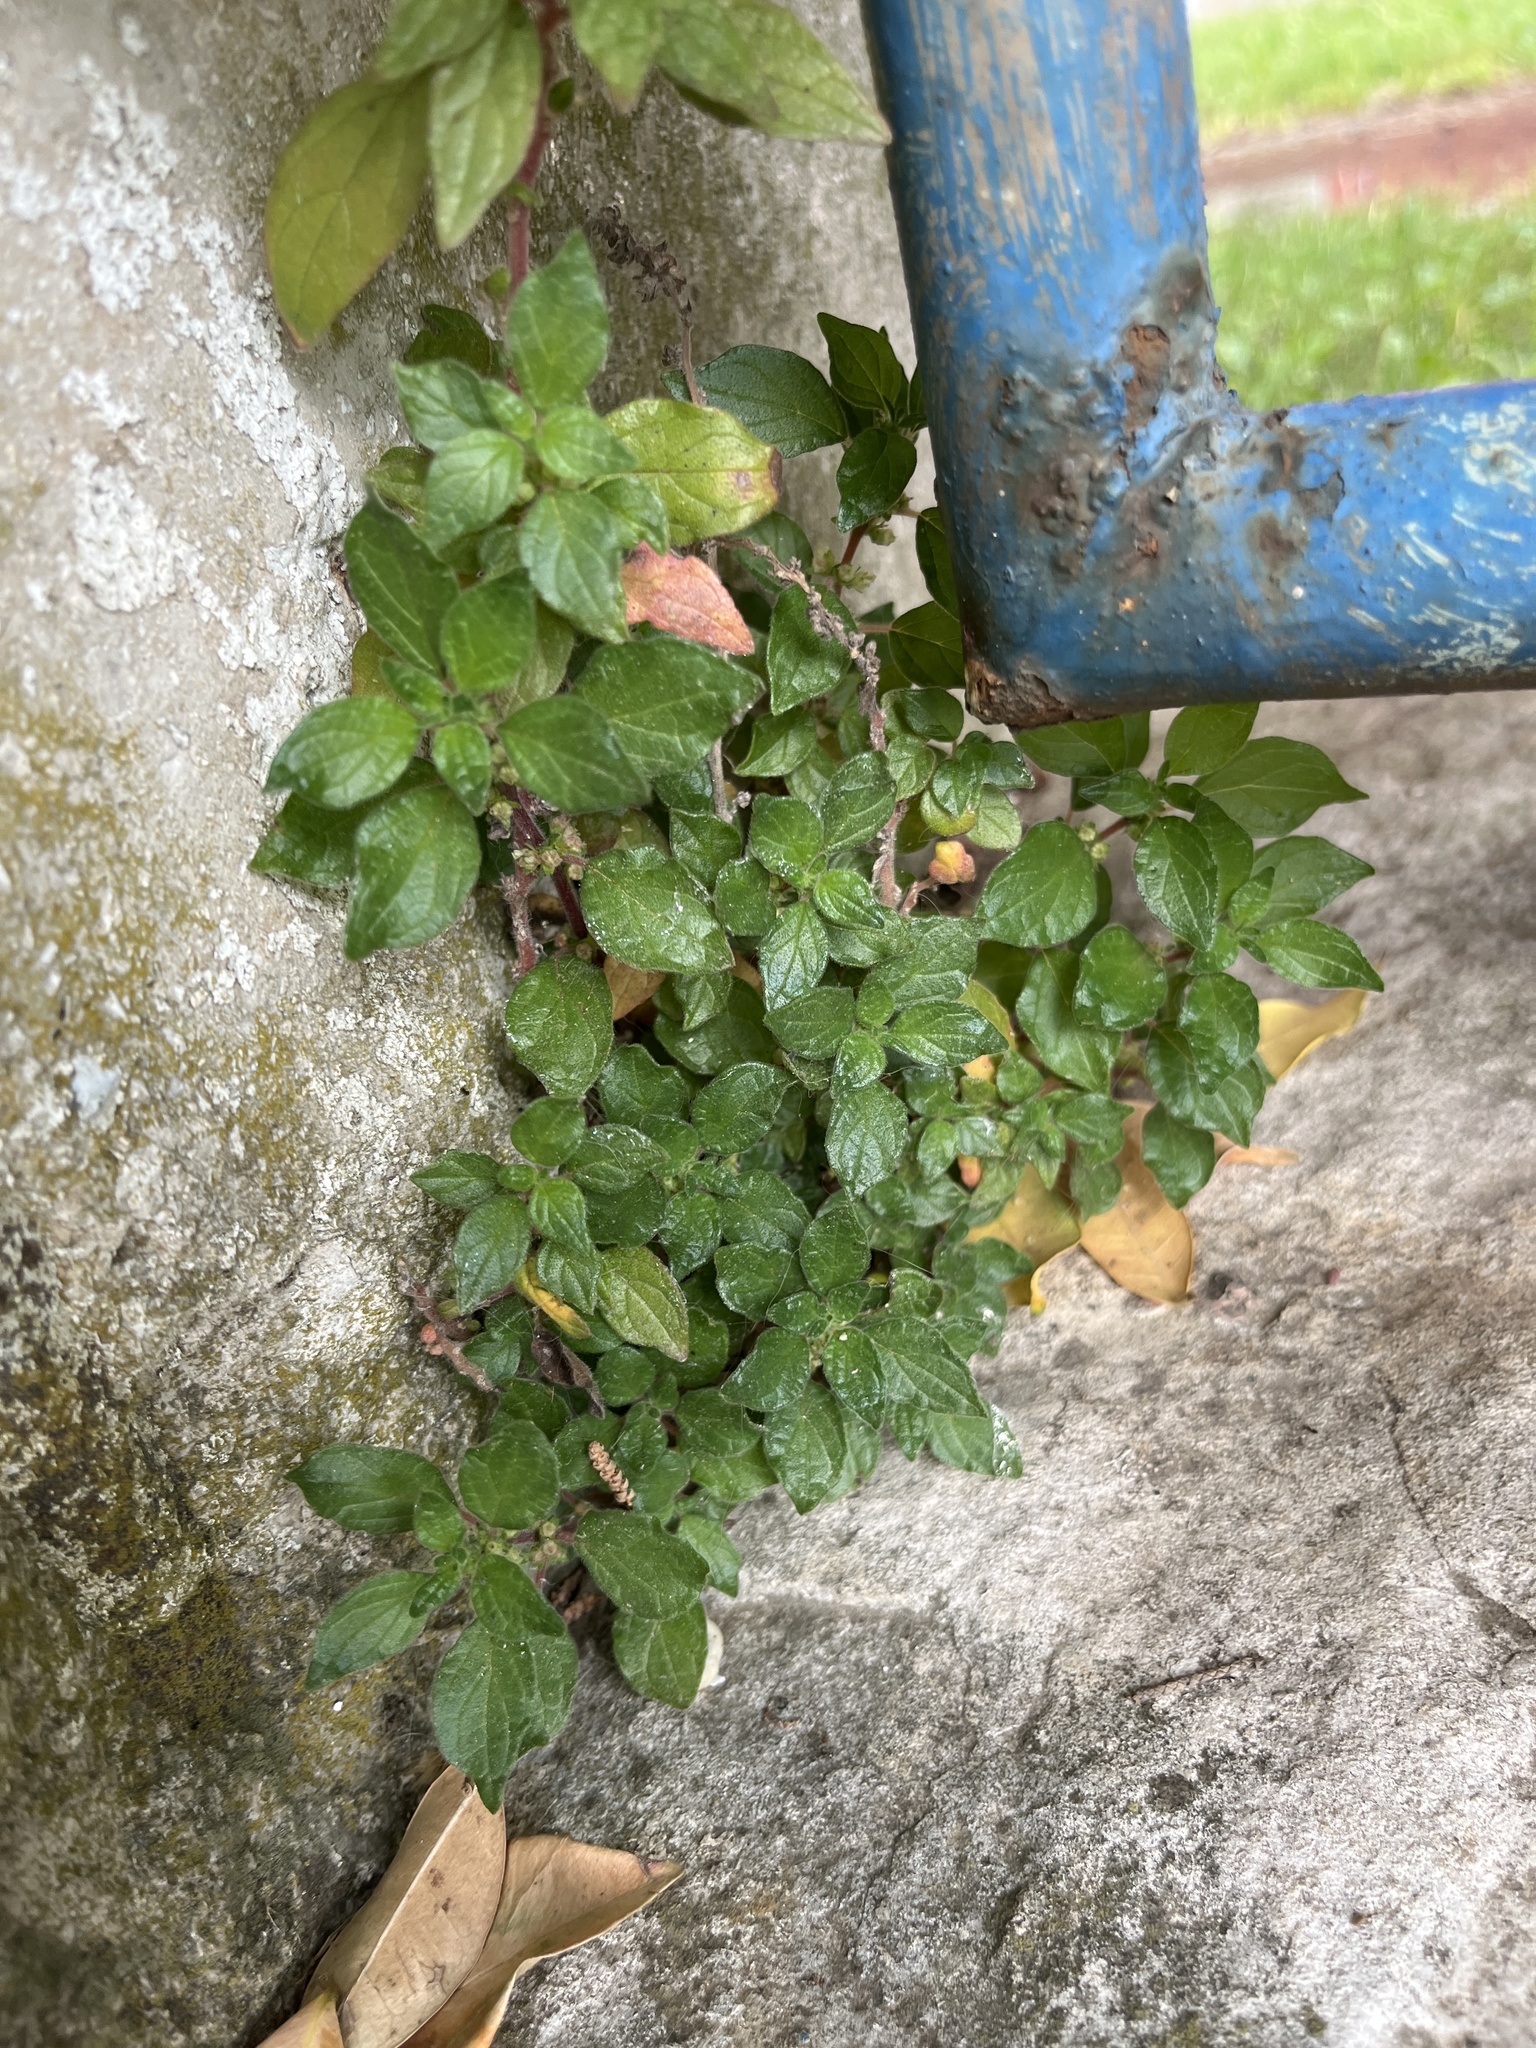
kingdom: Plantae
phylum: Tracheophyta
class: Magnoliopsida
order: Rosales
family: Urticaceae
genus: Parietaria
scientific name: Parietaria judaica
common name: Pellitory-of-the-wall
